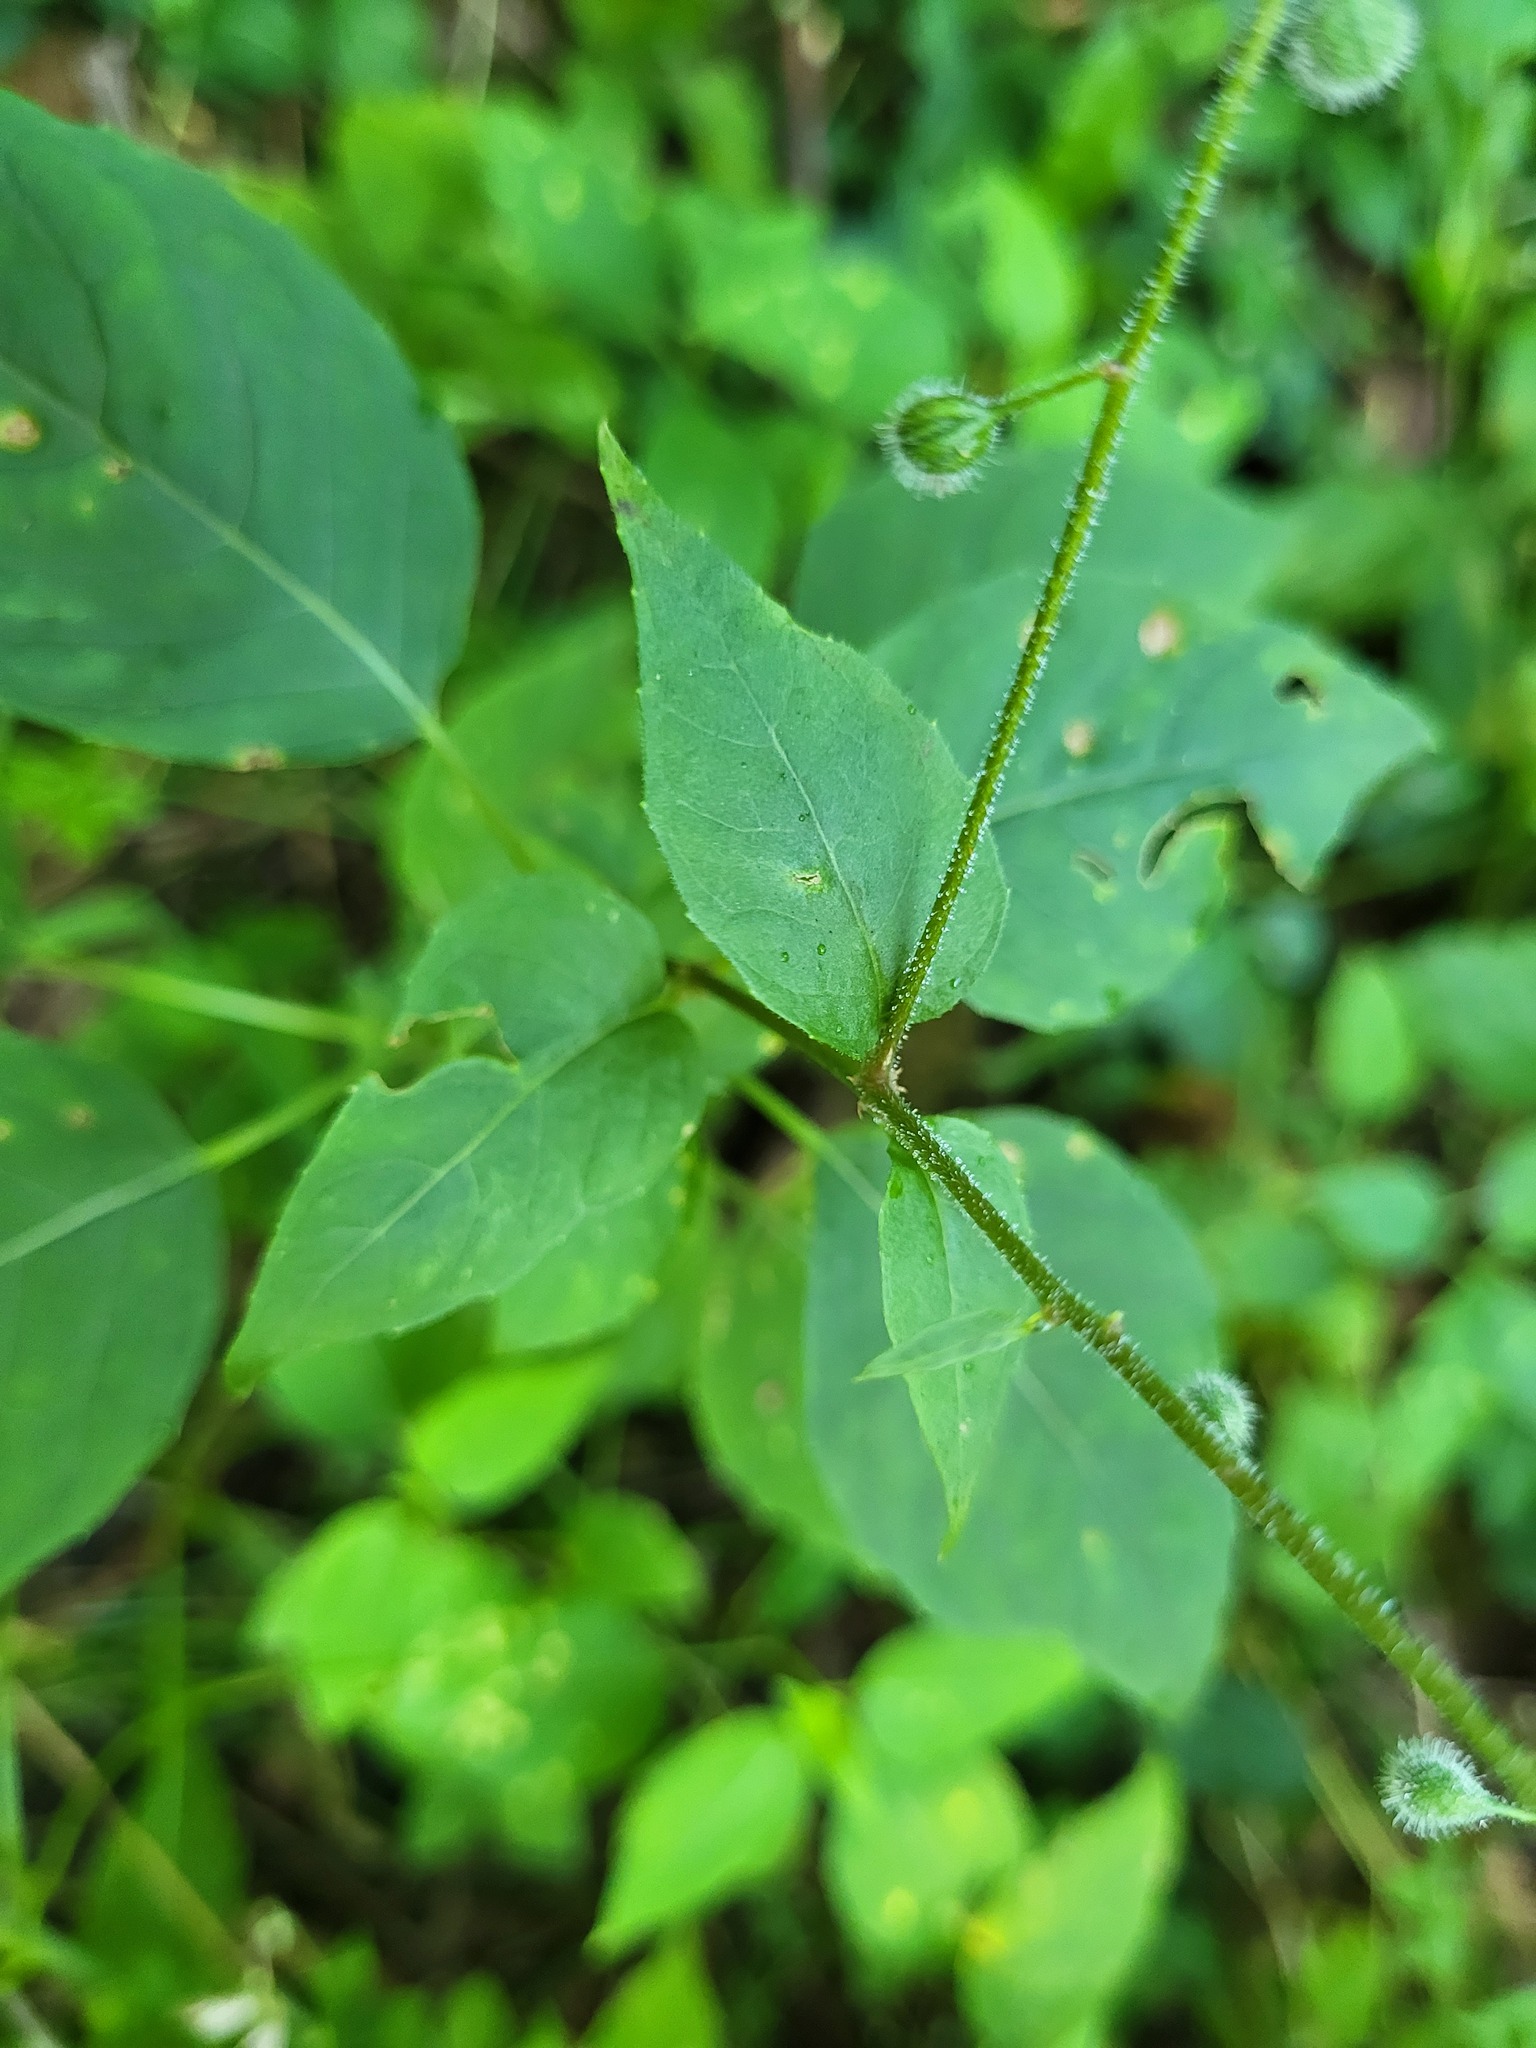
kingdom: Plantae
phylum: Tracheophyta
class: Magnoliopsida
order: Myrtales
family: Onagraceae
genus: Circaea
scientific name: Circaea canadensis
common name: Broad-leaved enchanter's nightshade
